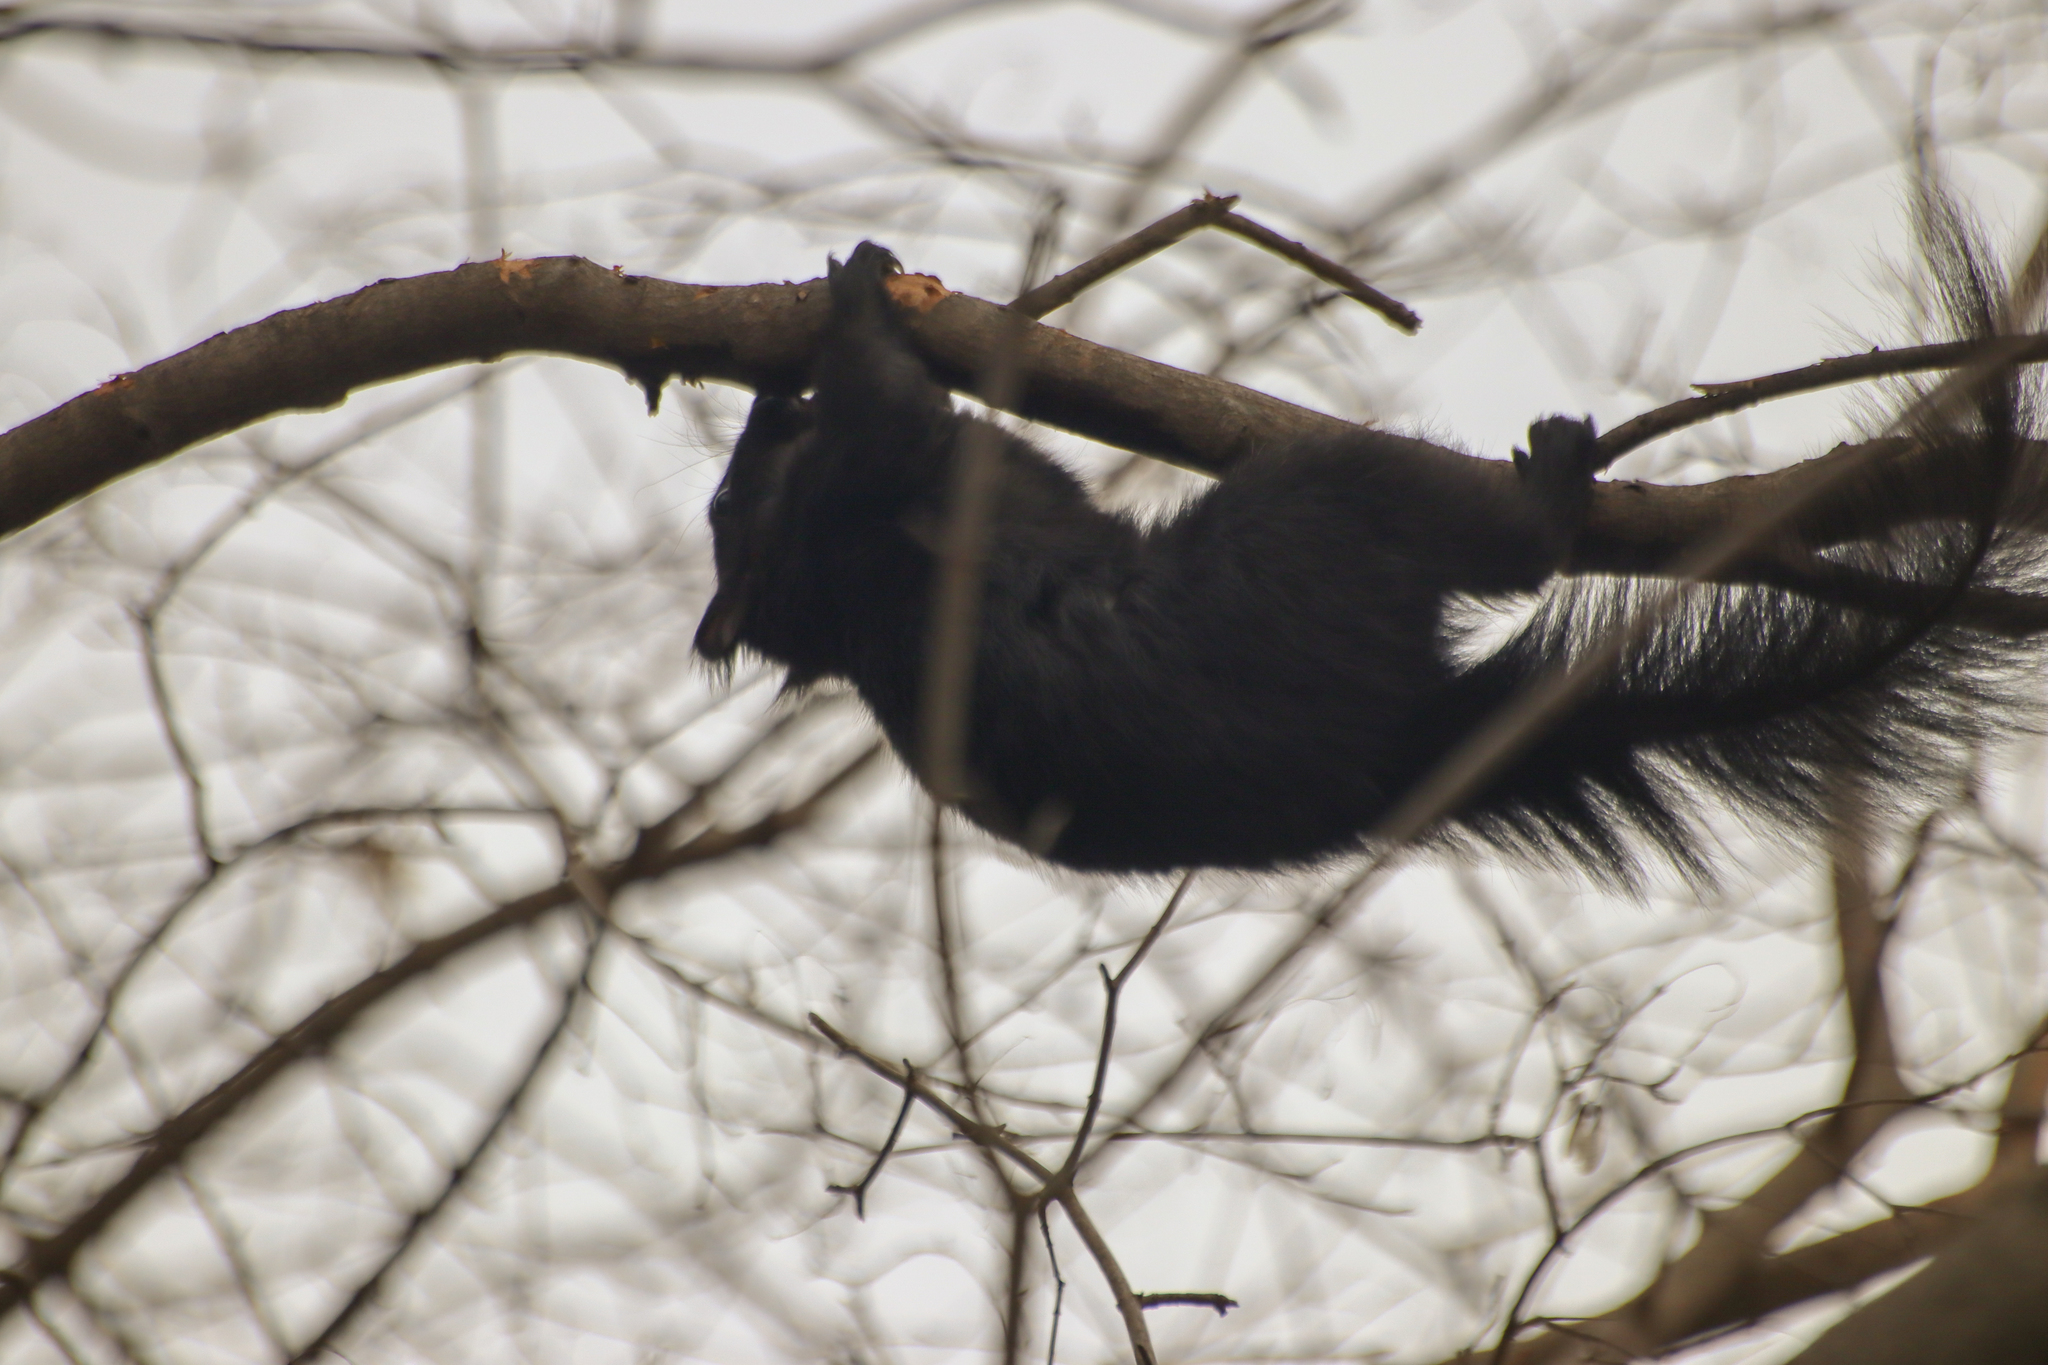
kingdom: Animalia
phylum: Chordata
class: Mammalia
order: Rodentia
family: Sciuridae
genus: Sciurus
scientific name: Sciurus carolinensis
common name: Eastern gray squirrel
